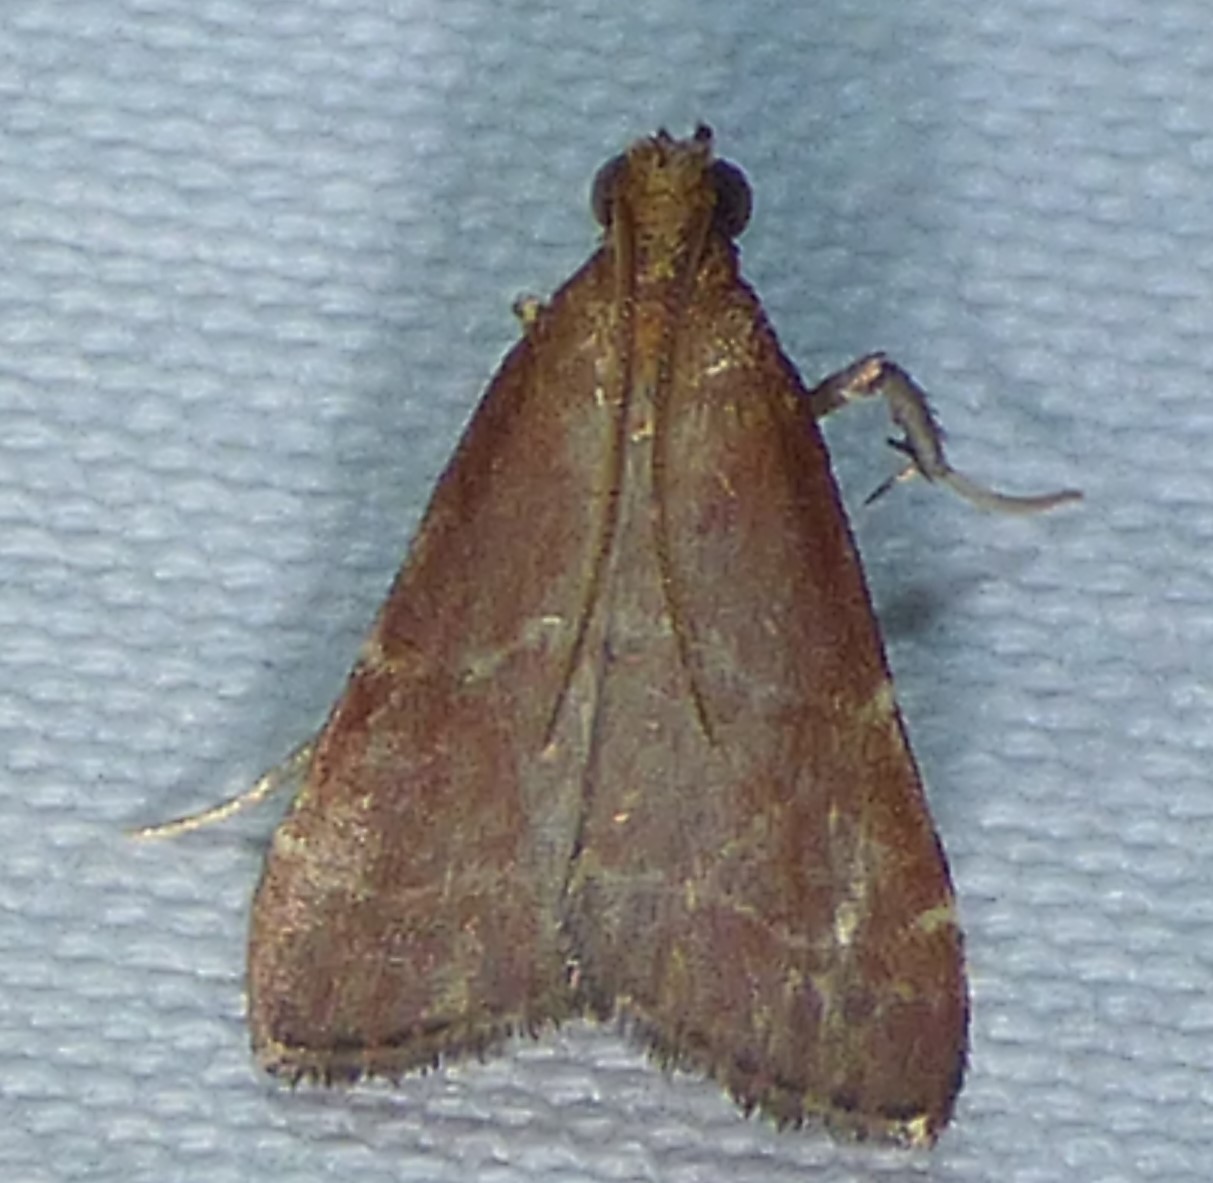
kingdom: Animalia
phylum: Arthropoda
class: Insecta
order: Lepidoptera
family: Pyralidae
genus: Arta
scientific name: Arta statalis
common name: Posturing arta moth
